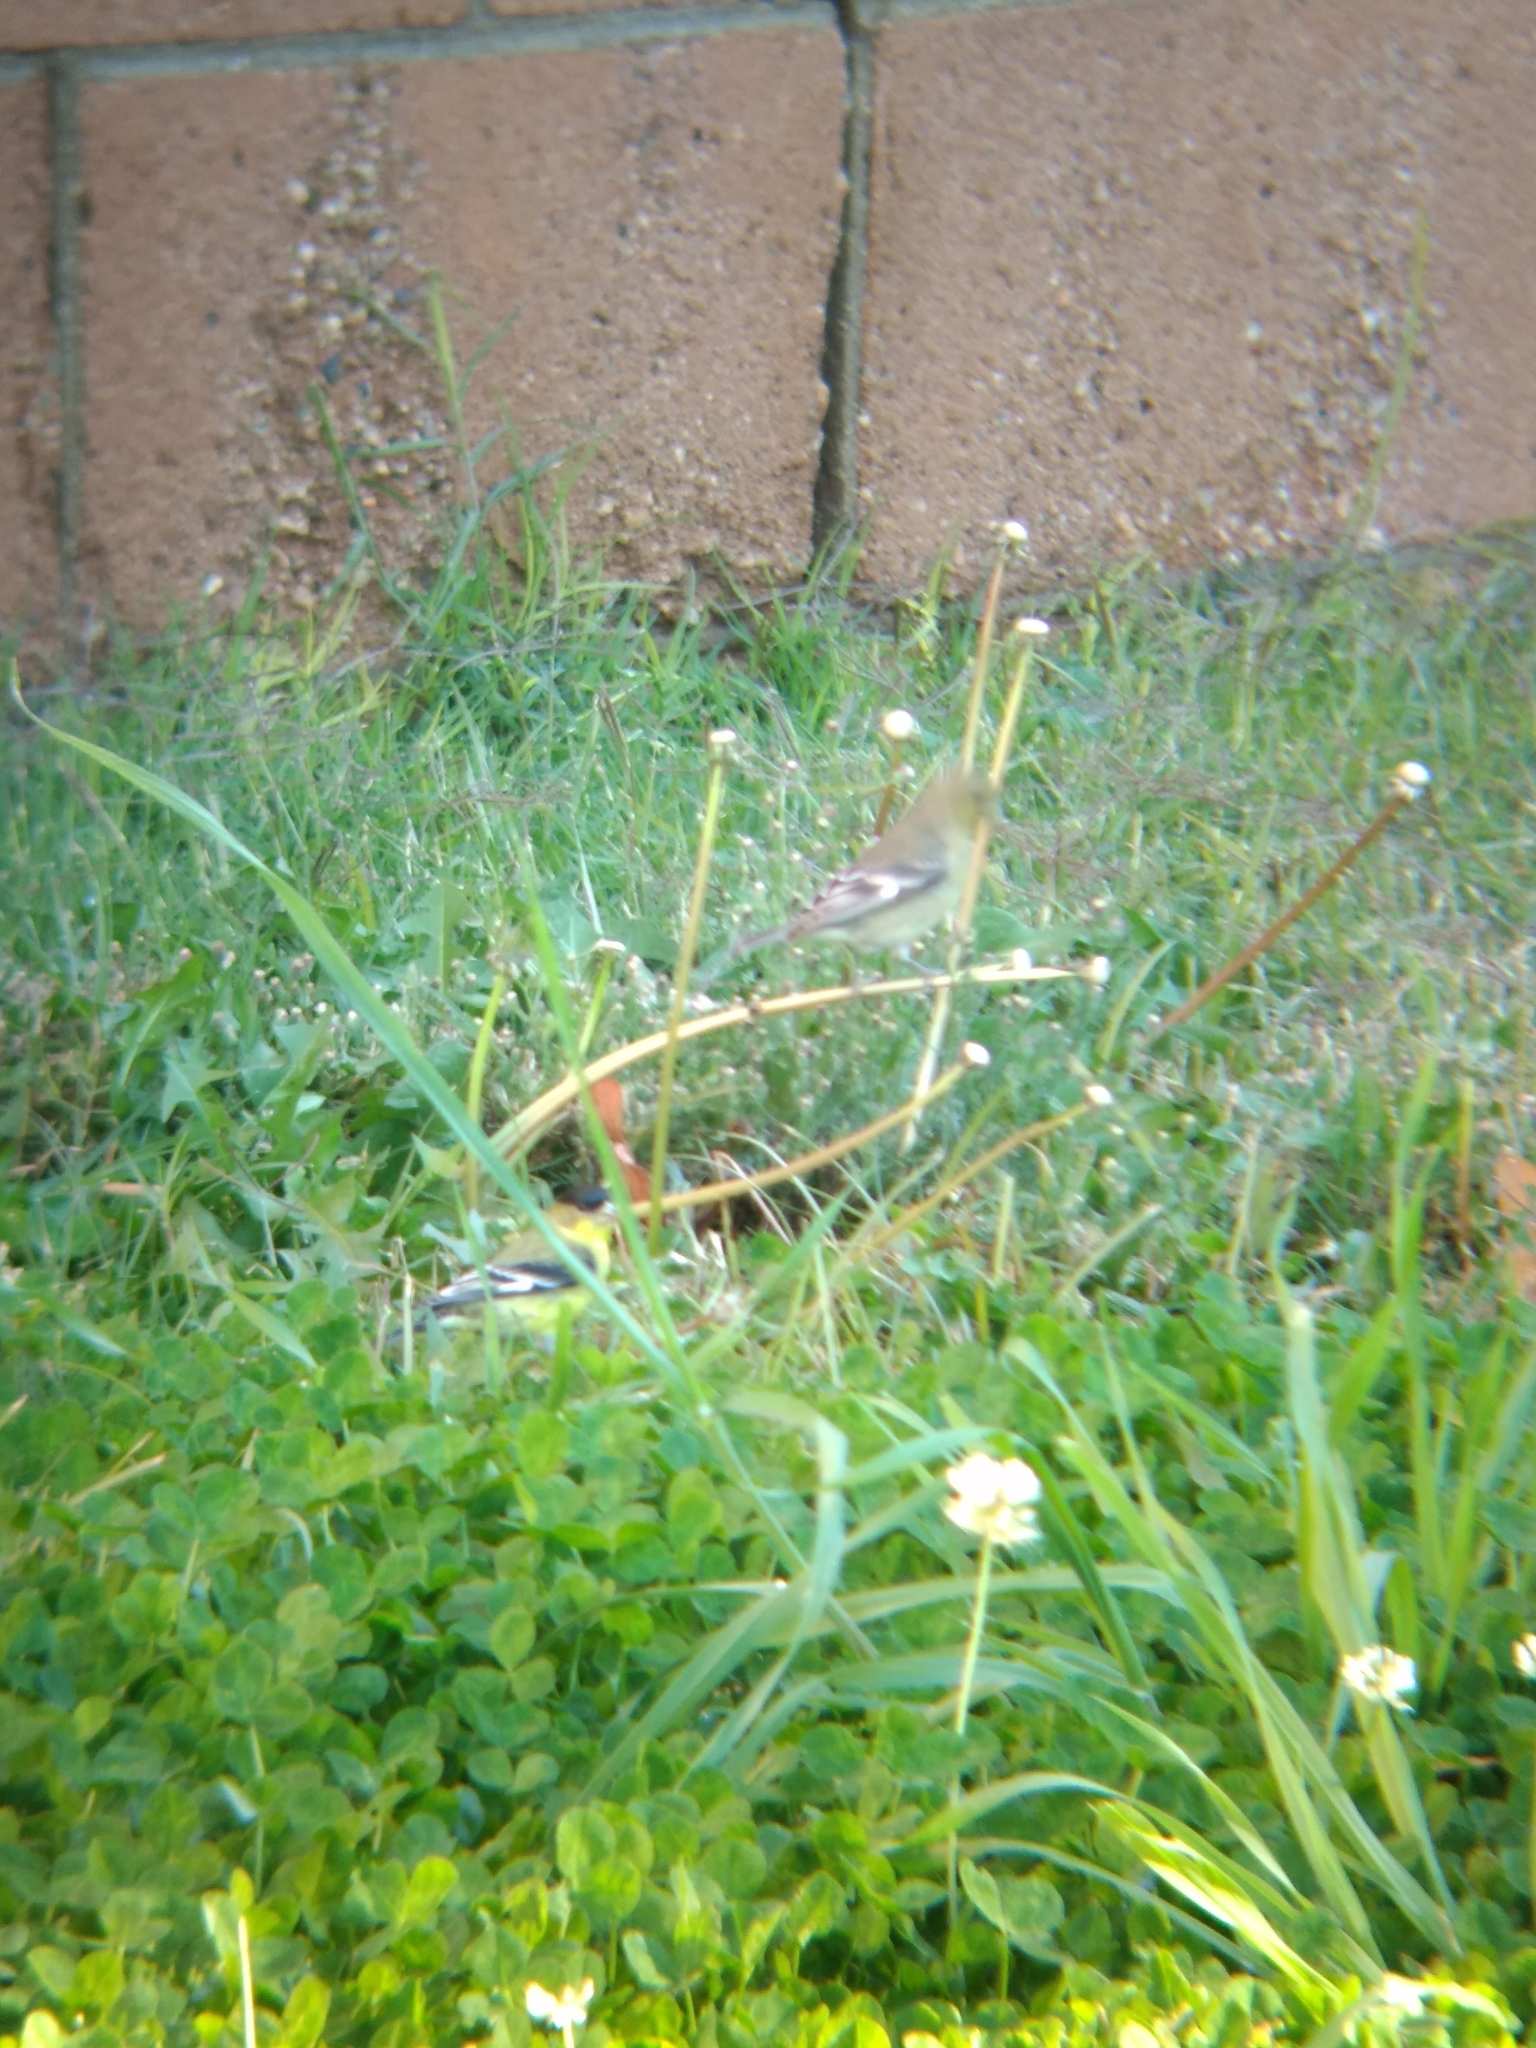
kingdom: Animalia
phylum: Chordata
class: Aves
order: Passeriformes
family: Fringillidae
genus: Spinus
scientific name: Spinus psaltria
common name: Lesser goldfinch
